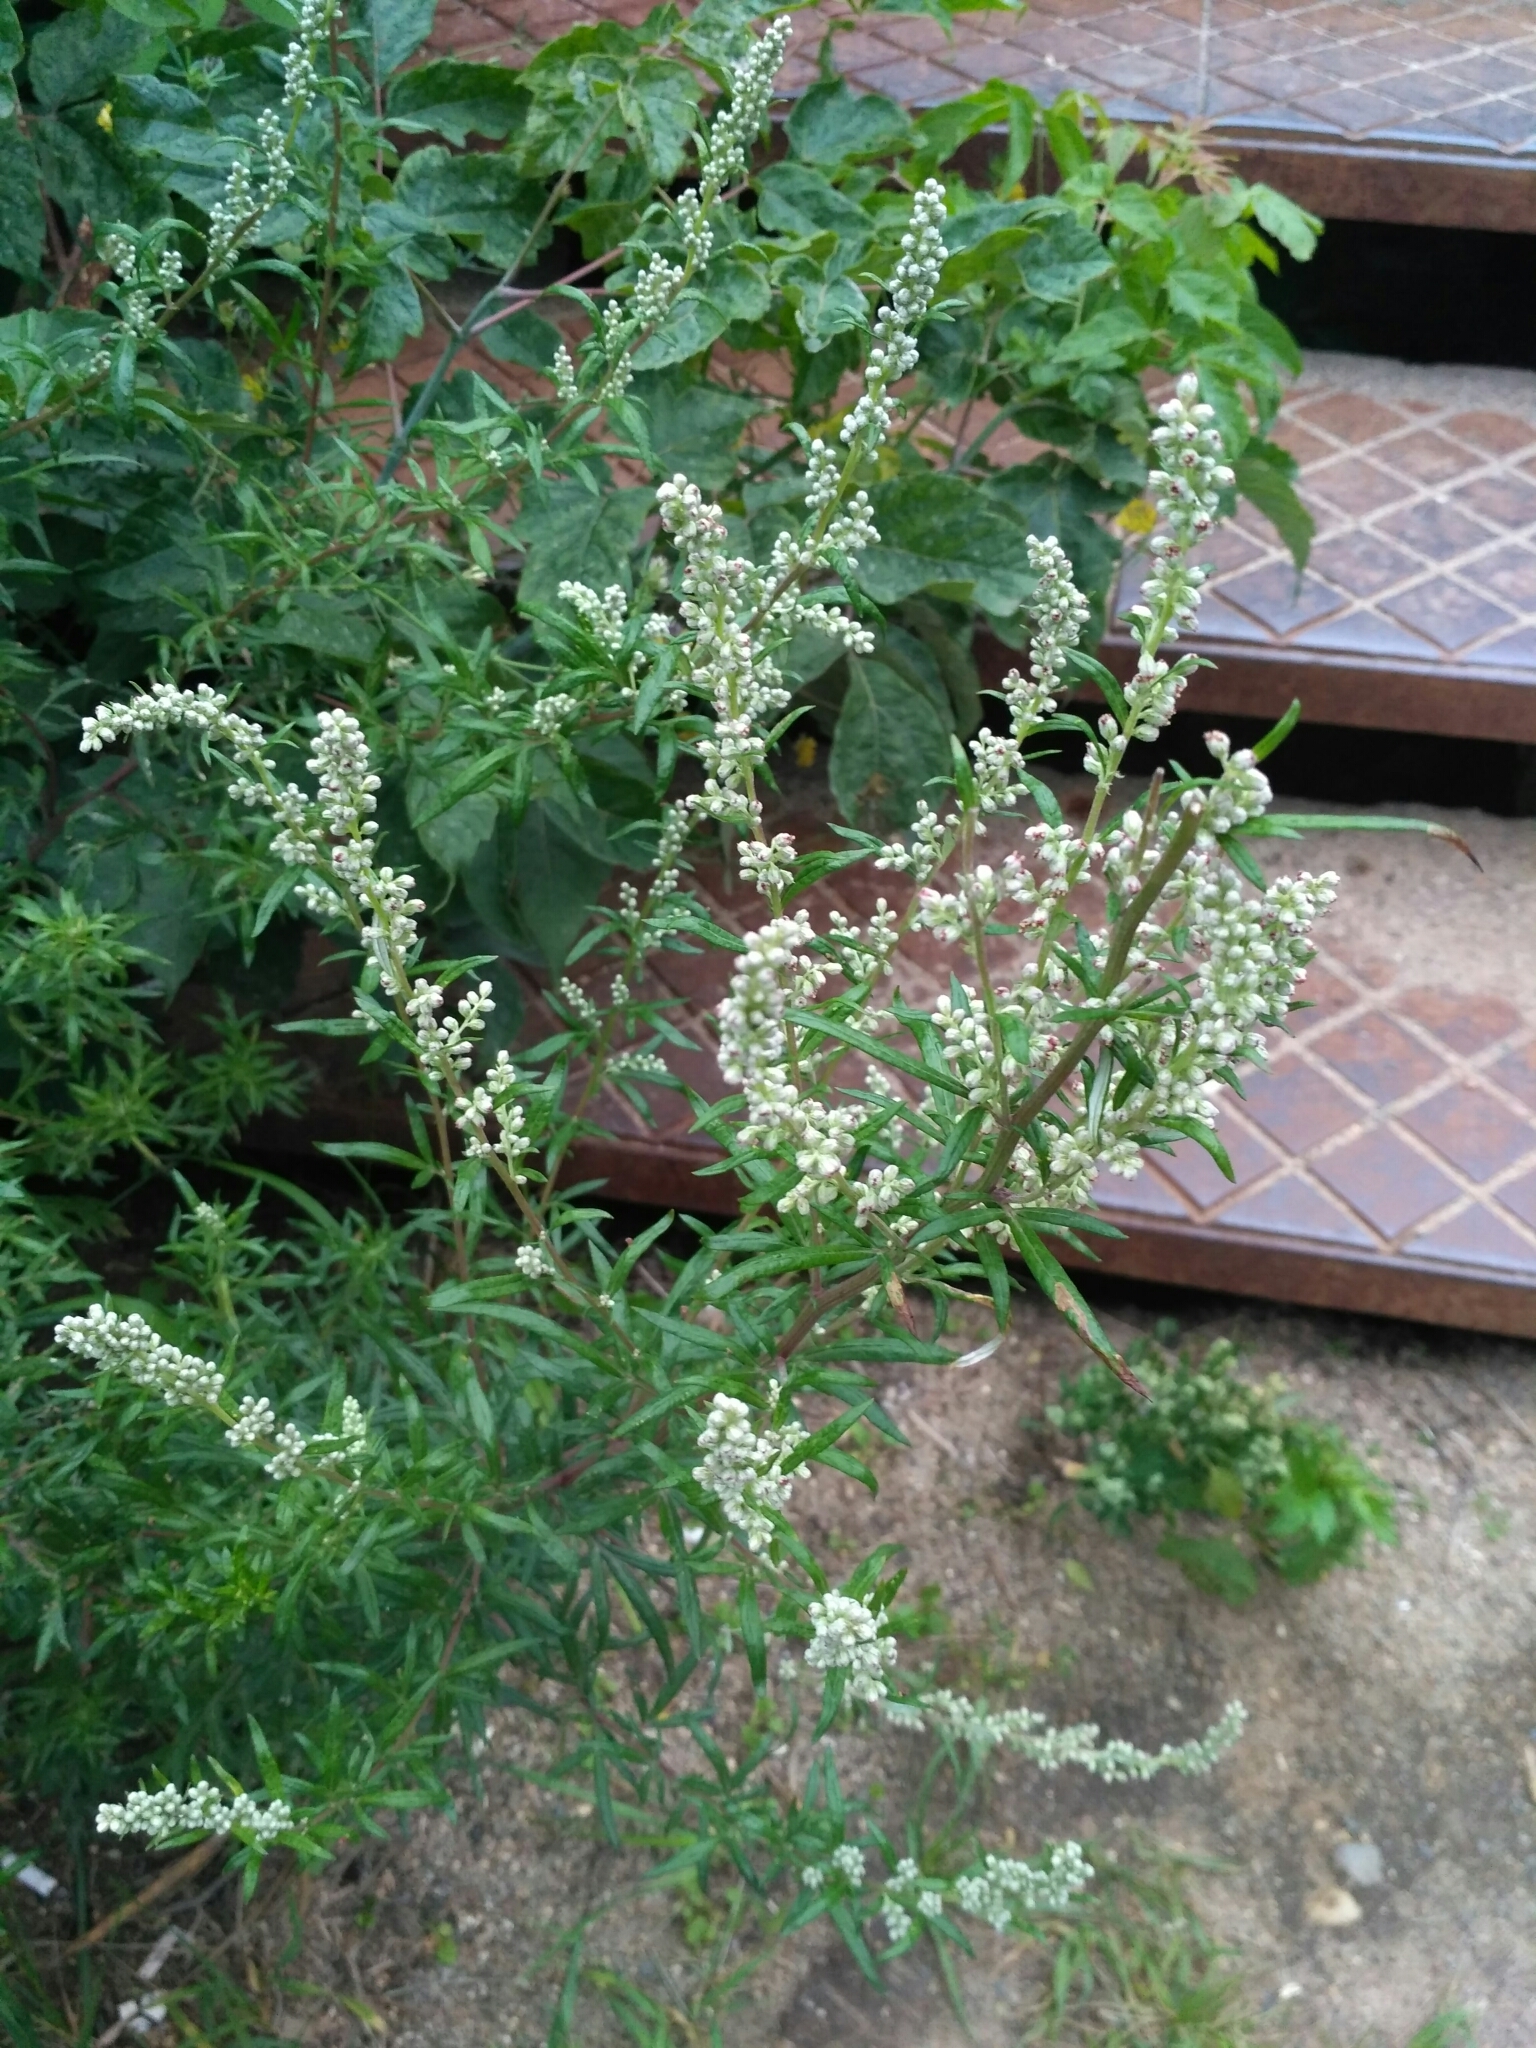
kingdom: Plantae
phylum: Tracheophyta
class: Magnoliopsida
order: Asterales
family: Asteraceae
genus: Artemisia
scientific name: Artemisia vulgaris
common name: Mugwort
